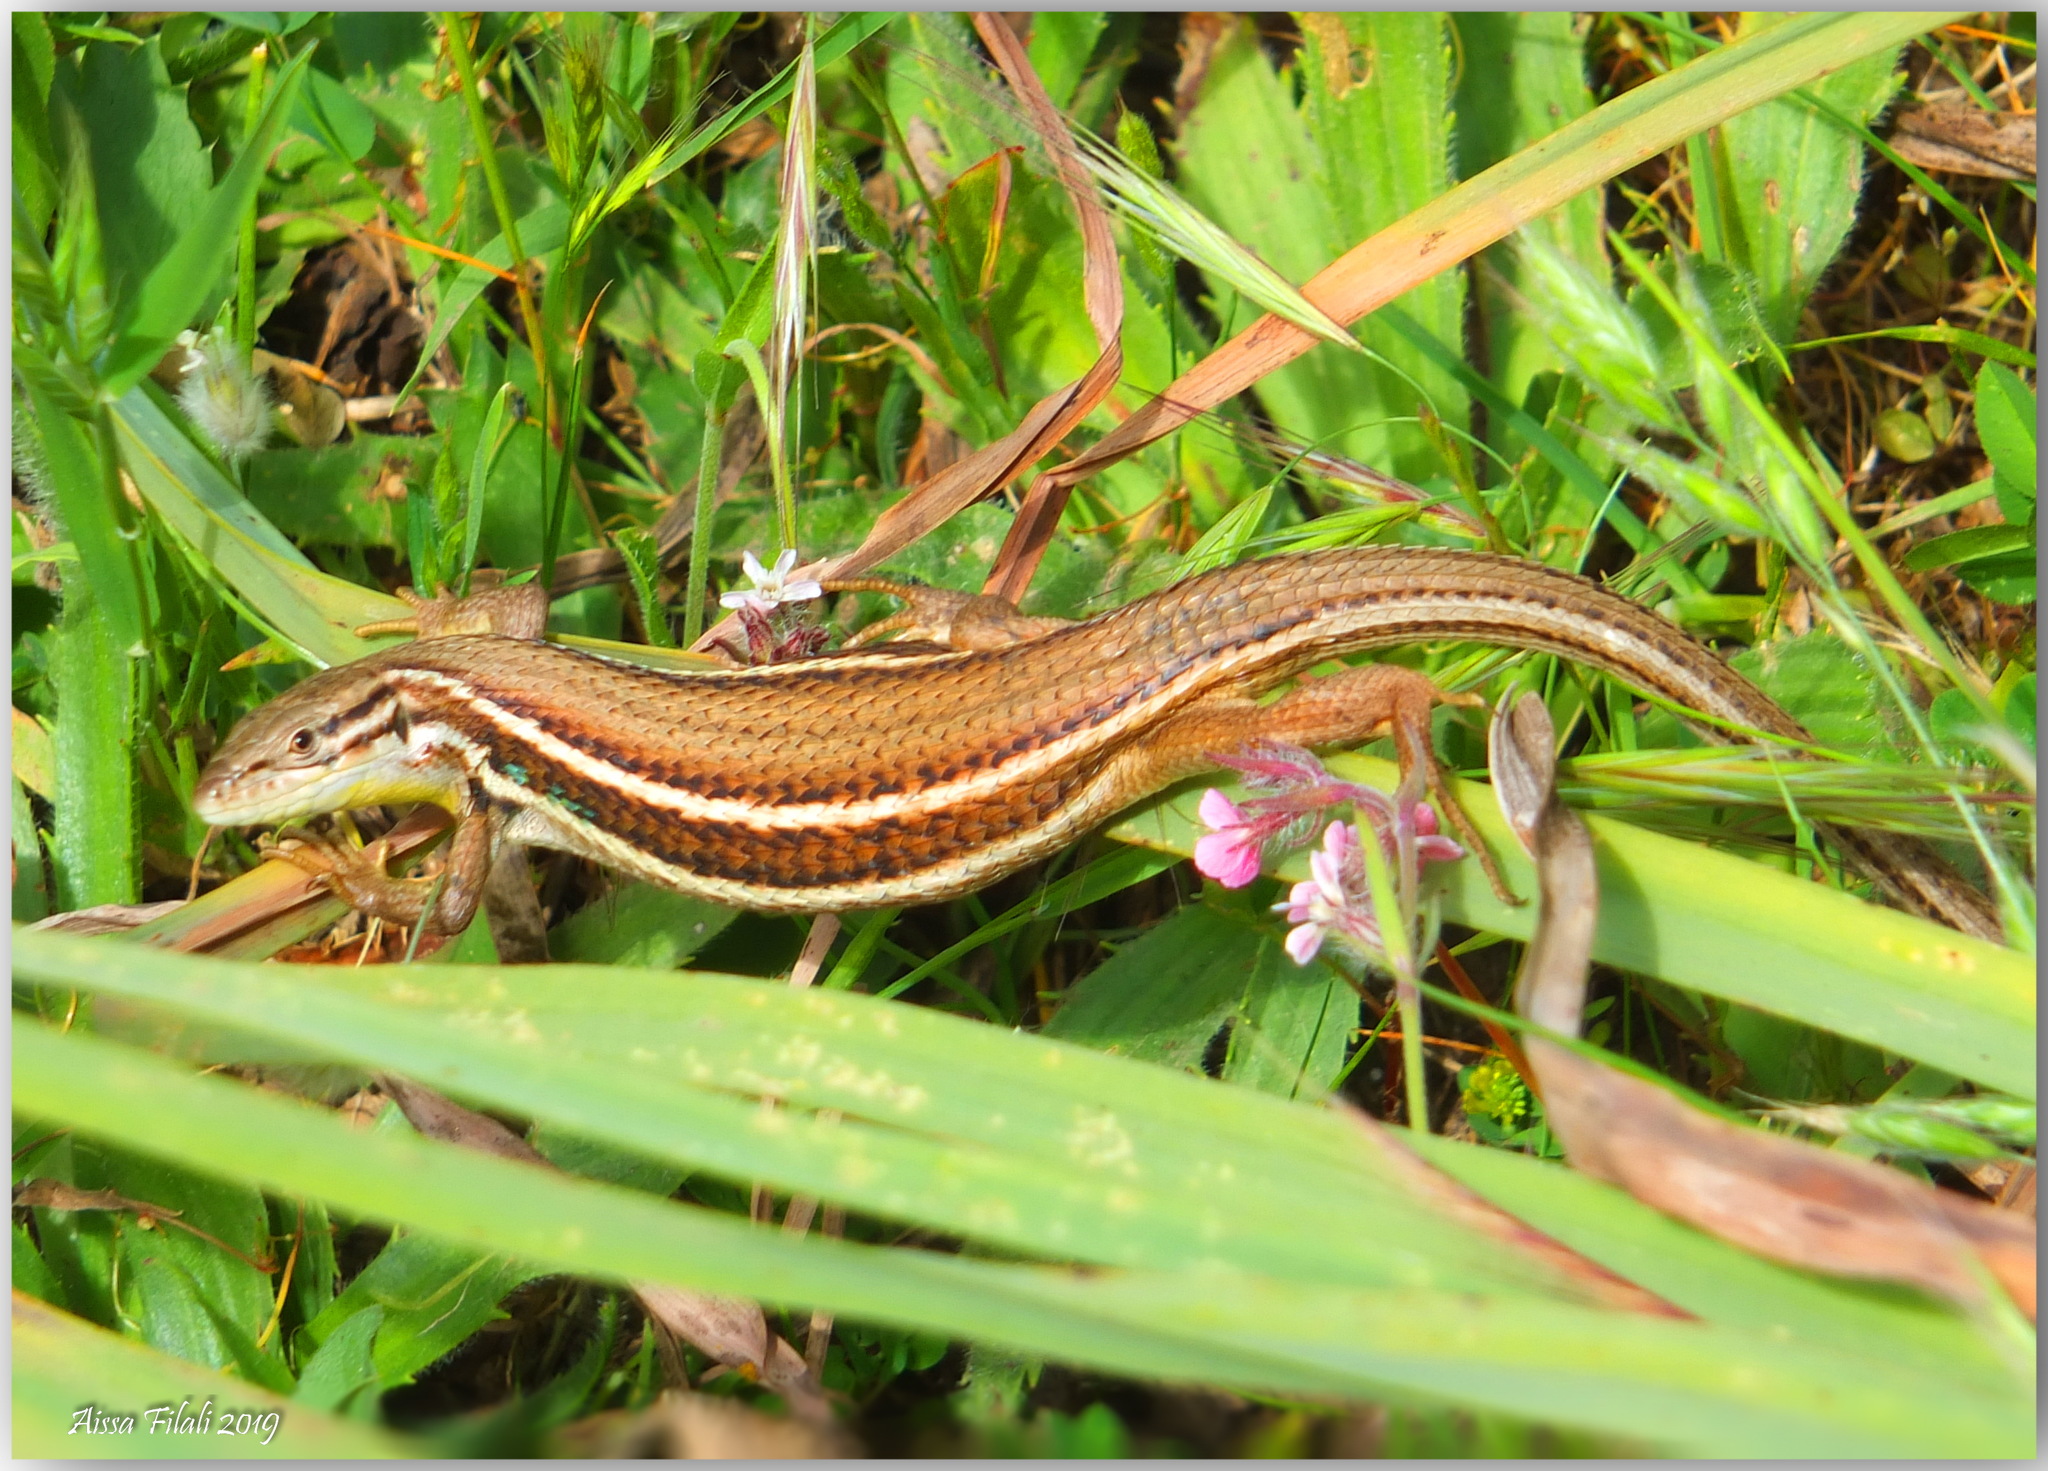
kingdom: Animalia
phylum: Chordata
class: Squamata
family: Lacertidae
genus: Psammodromus
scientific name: Psammodromus algirus
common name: Algerian psammodromus
